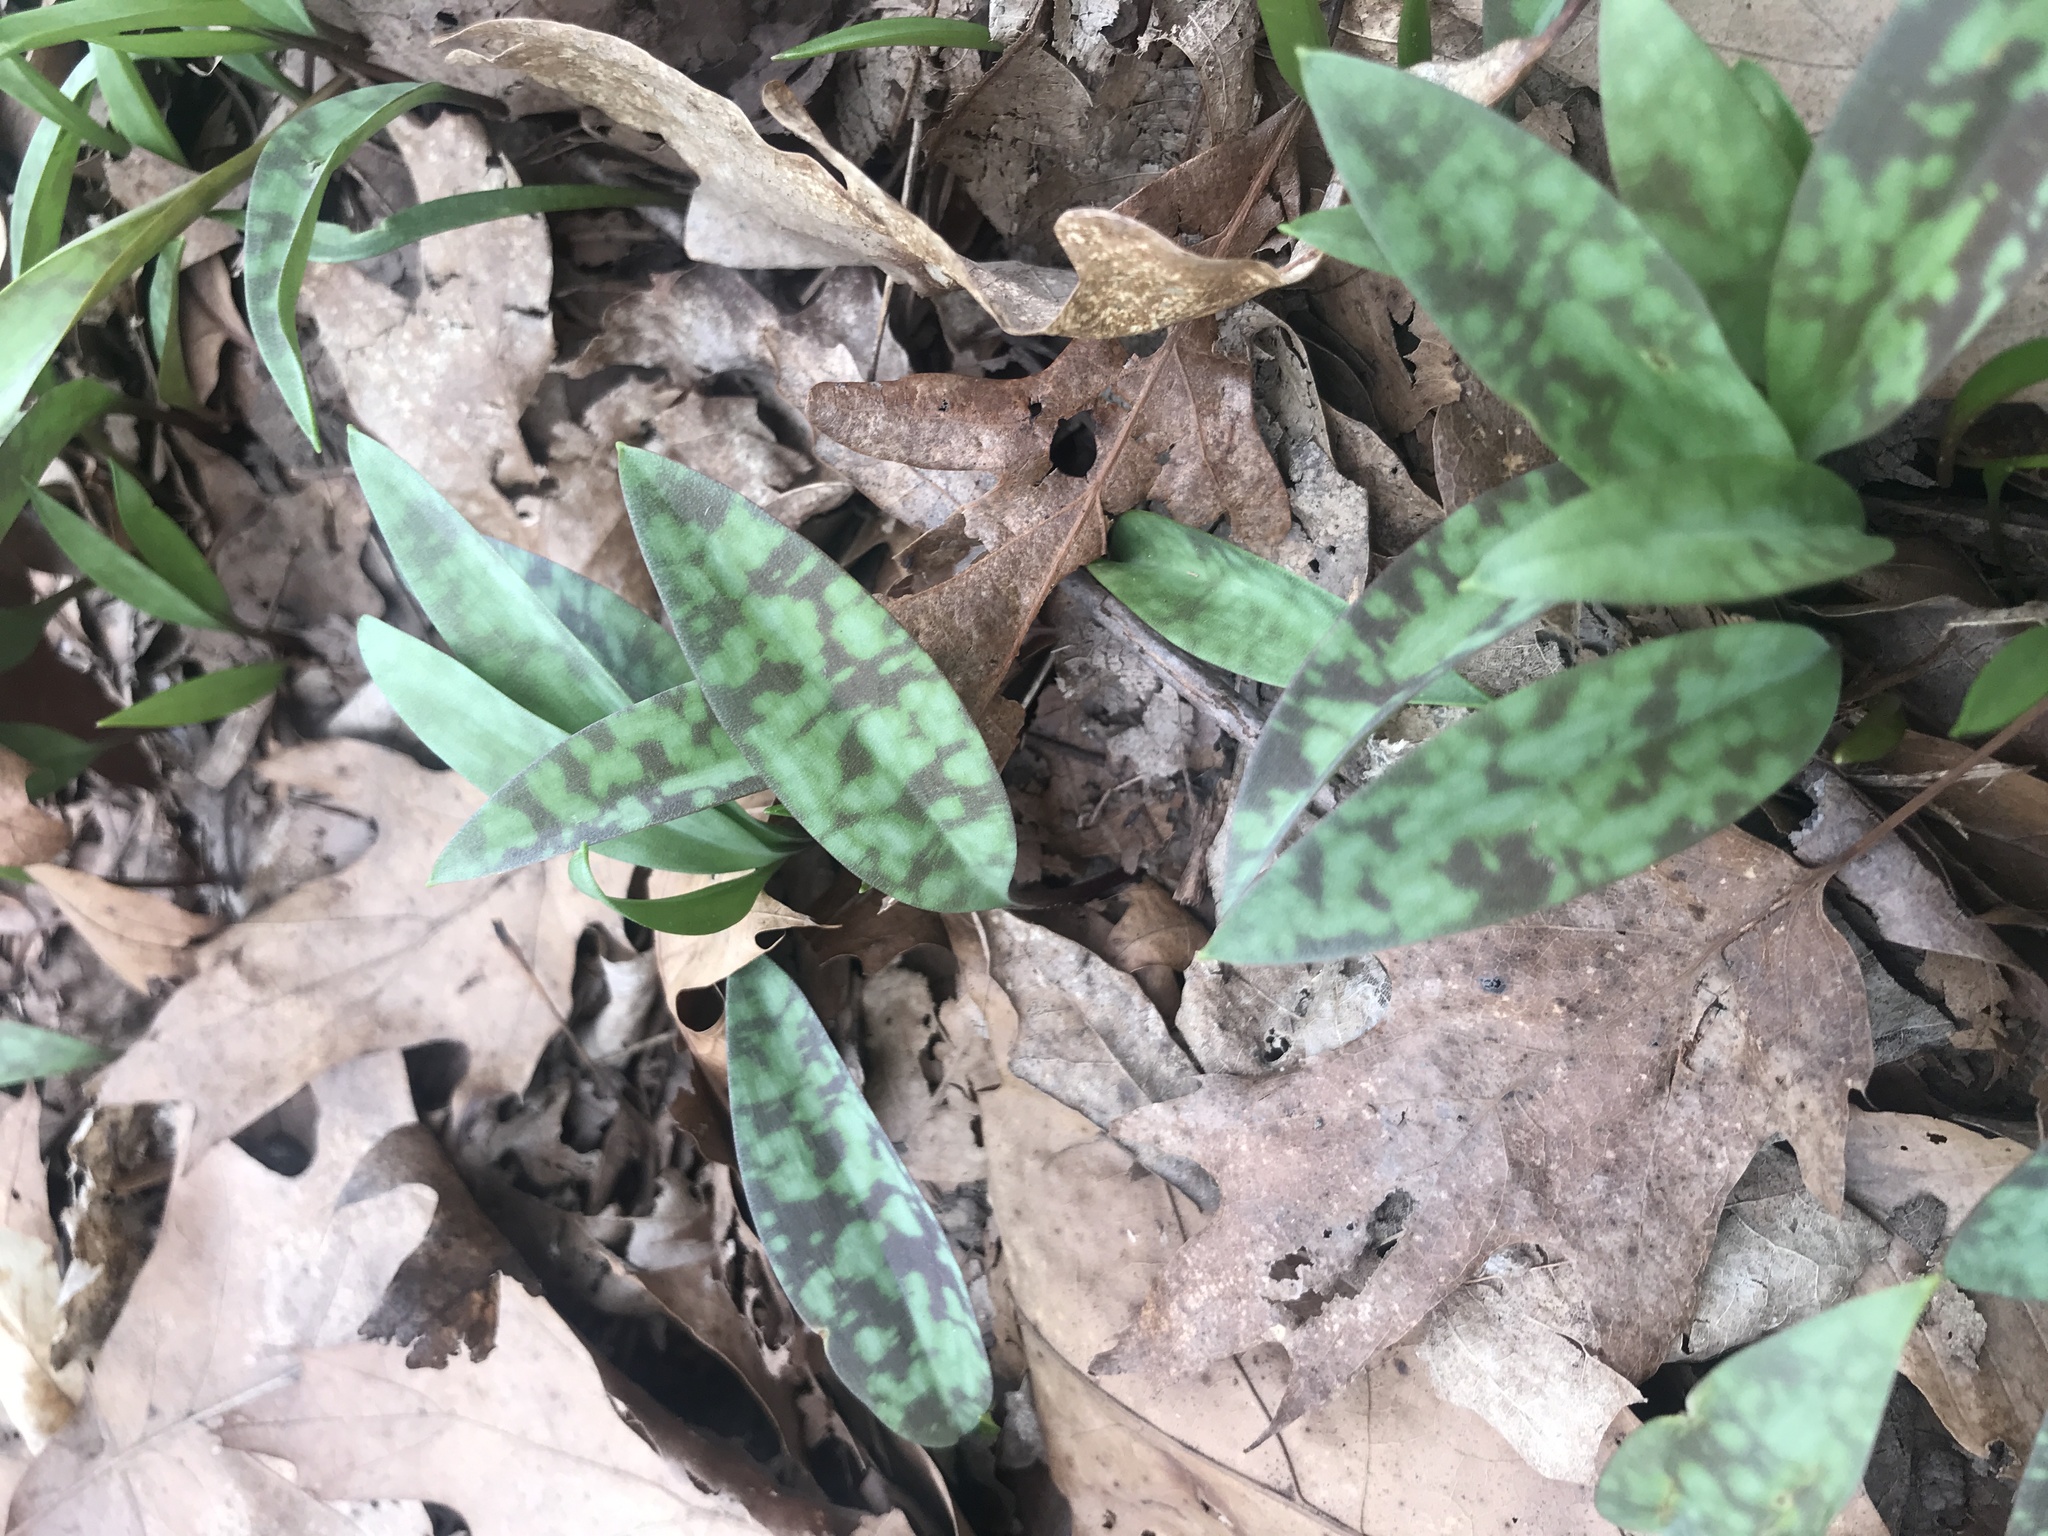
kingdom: Plantae
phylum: Tracheophyta
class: Liliopsida
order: Liliales
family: Liliaceae
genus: Erythronium
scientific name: Erythronium americanum
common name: Yellow adder's-tongue
